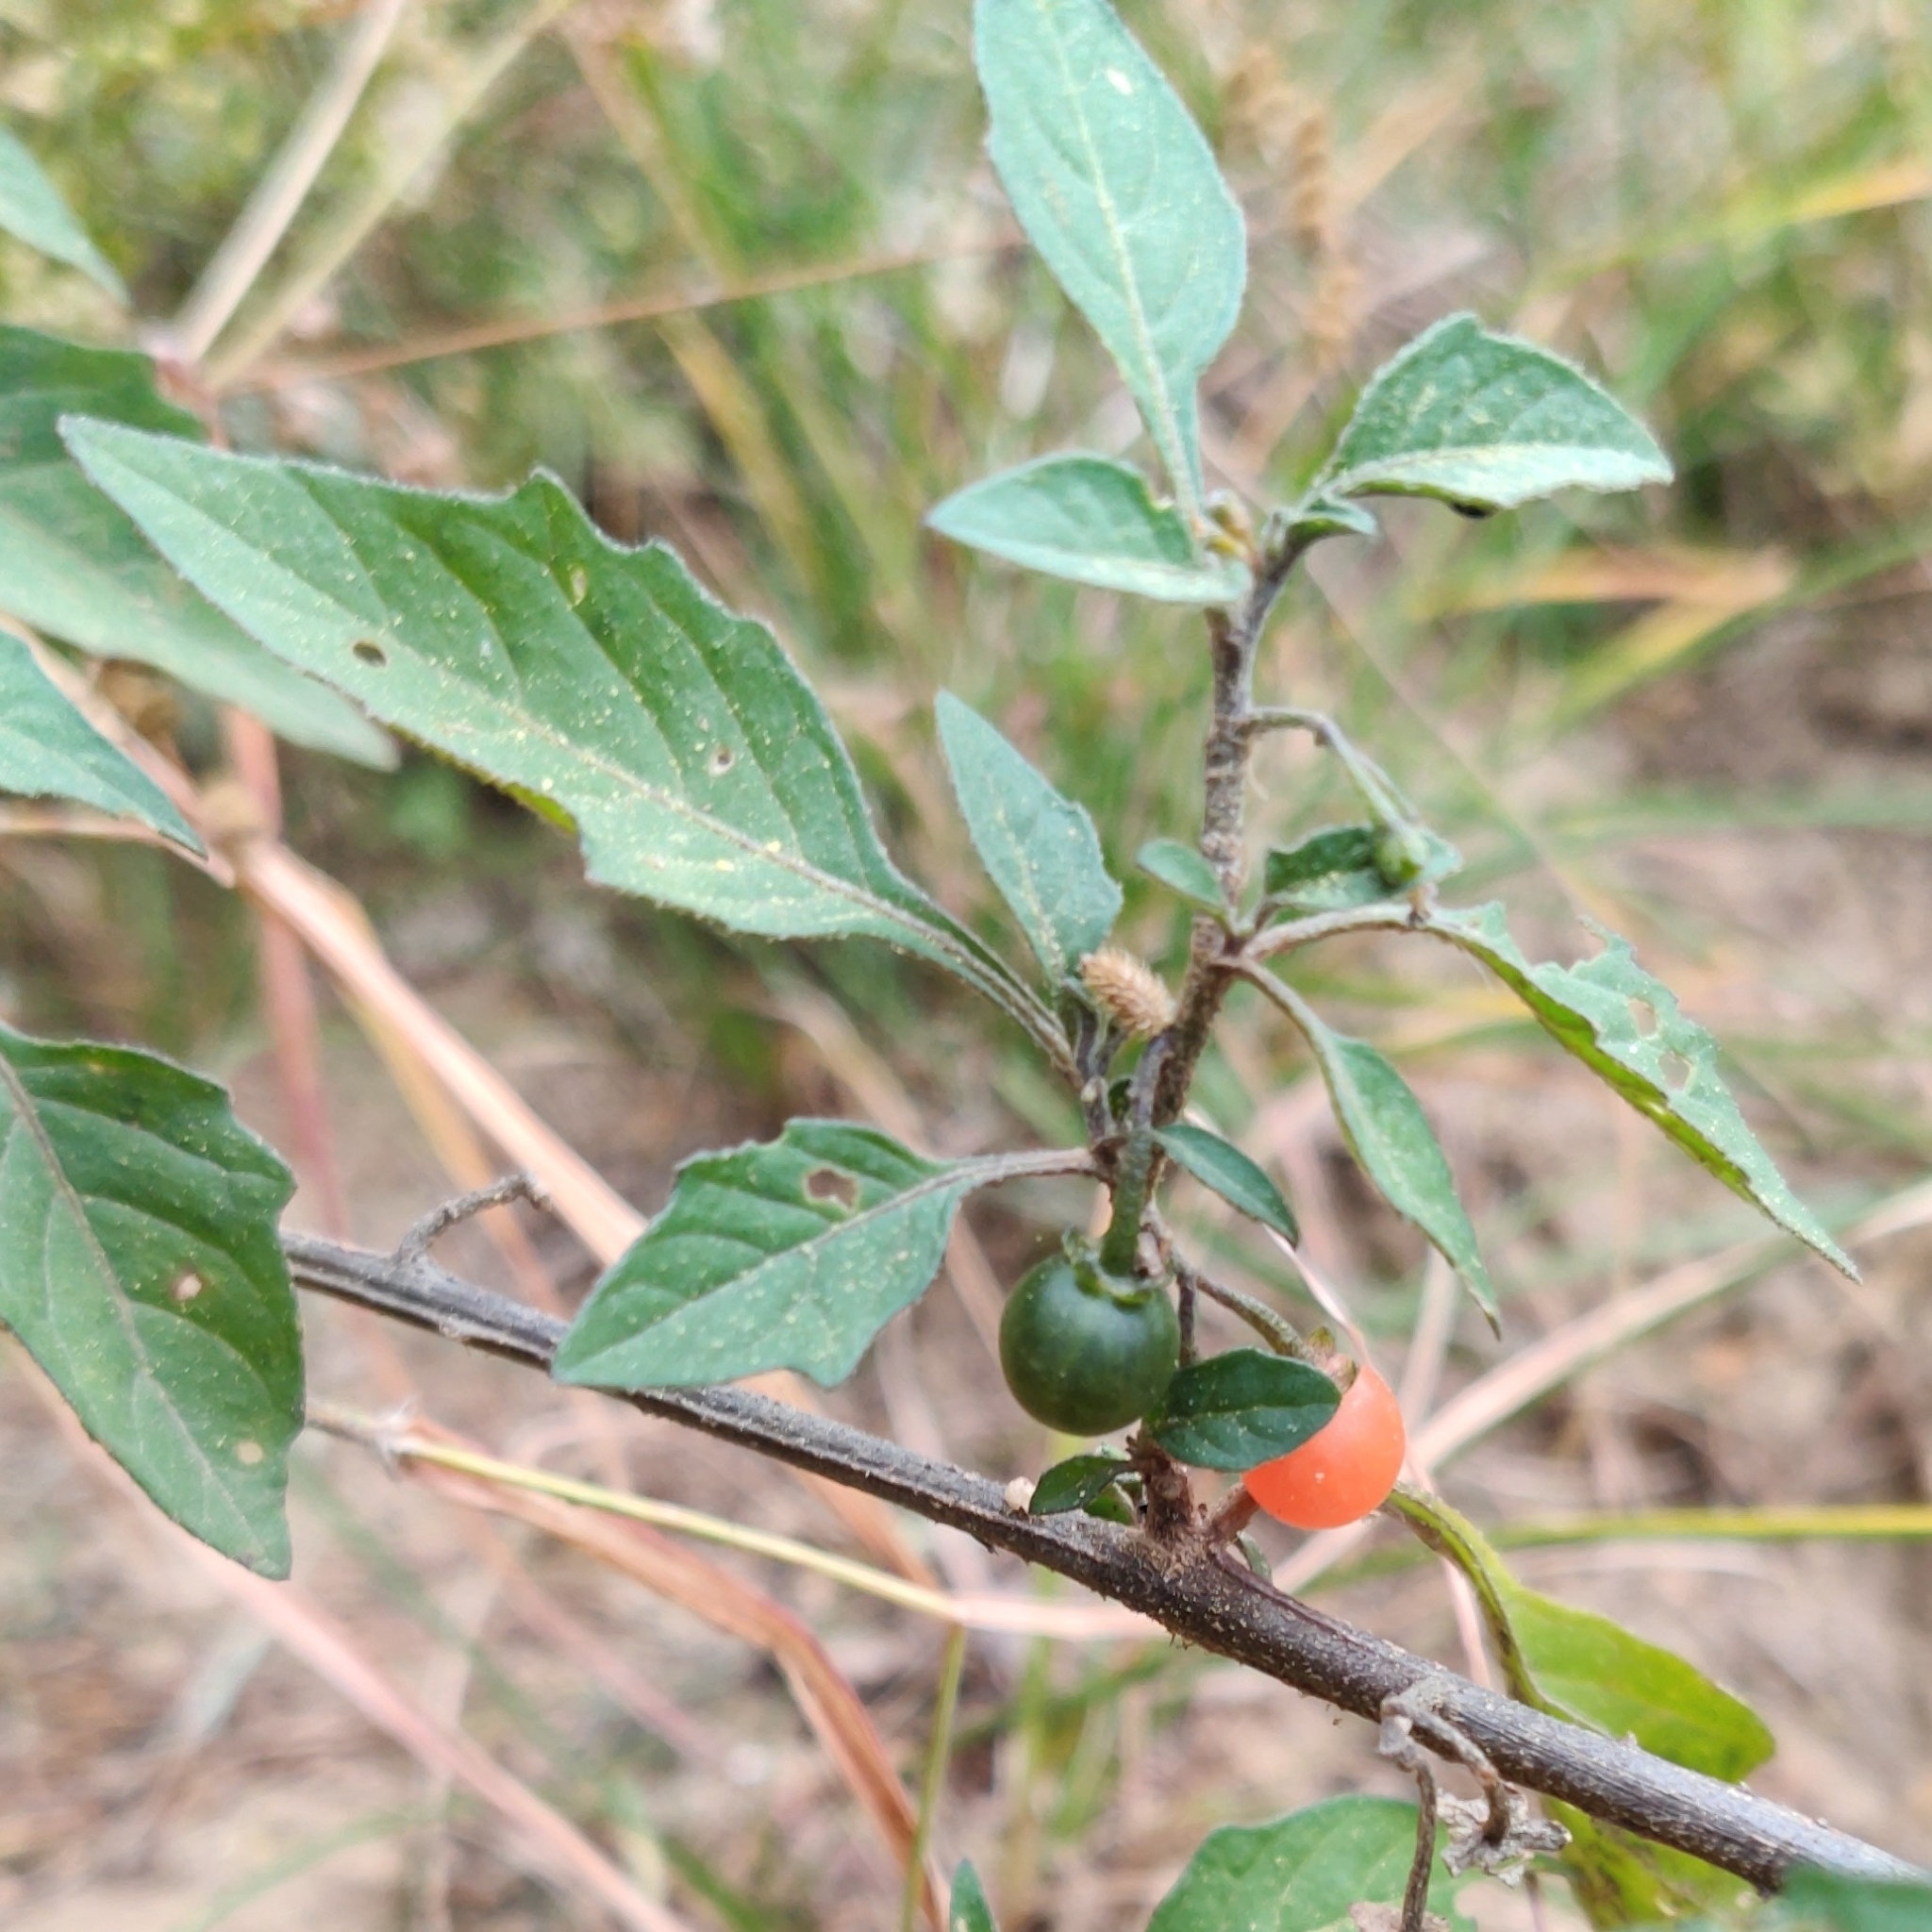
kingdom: Plantae
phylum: Tracheophyta
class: Magnoliopsida
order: Solanales
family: Solanaceae
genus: Solanum
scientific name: Solanum villosum
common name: Red nightshade
